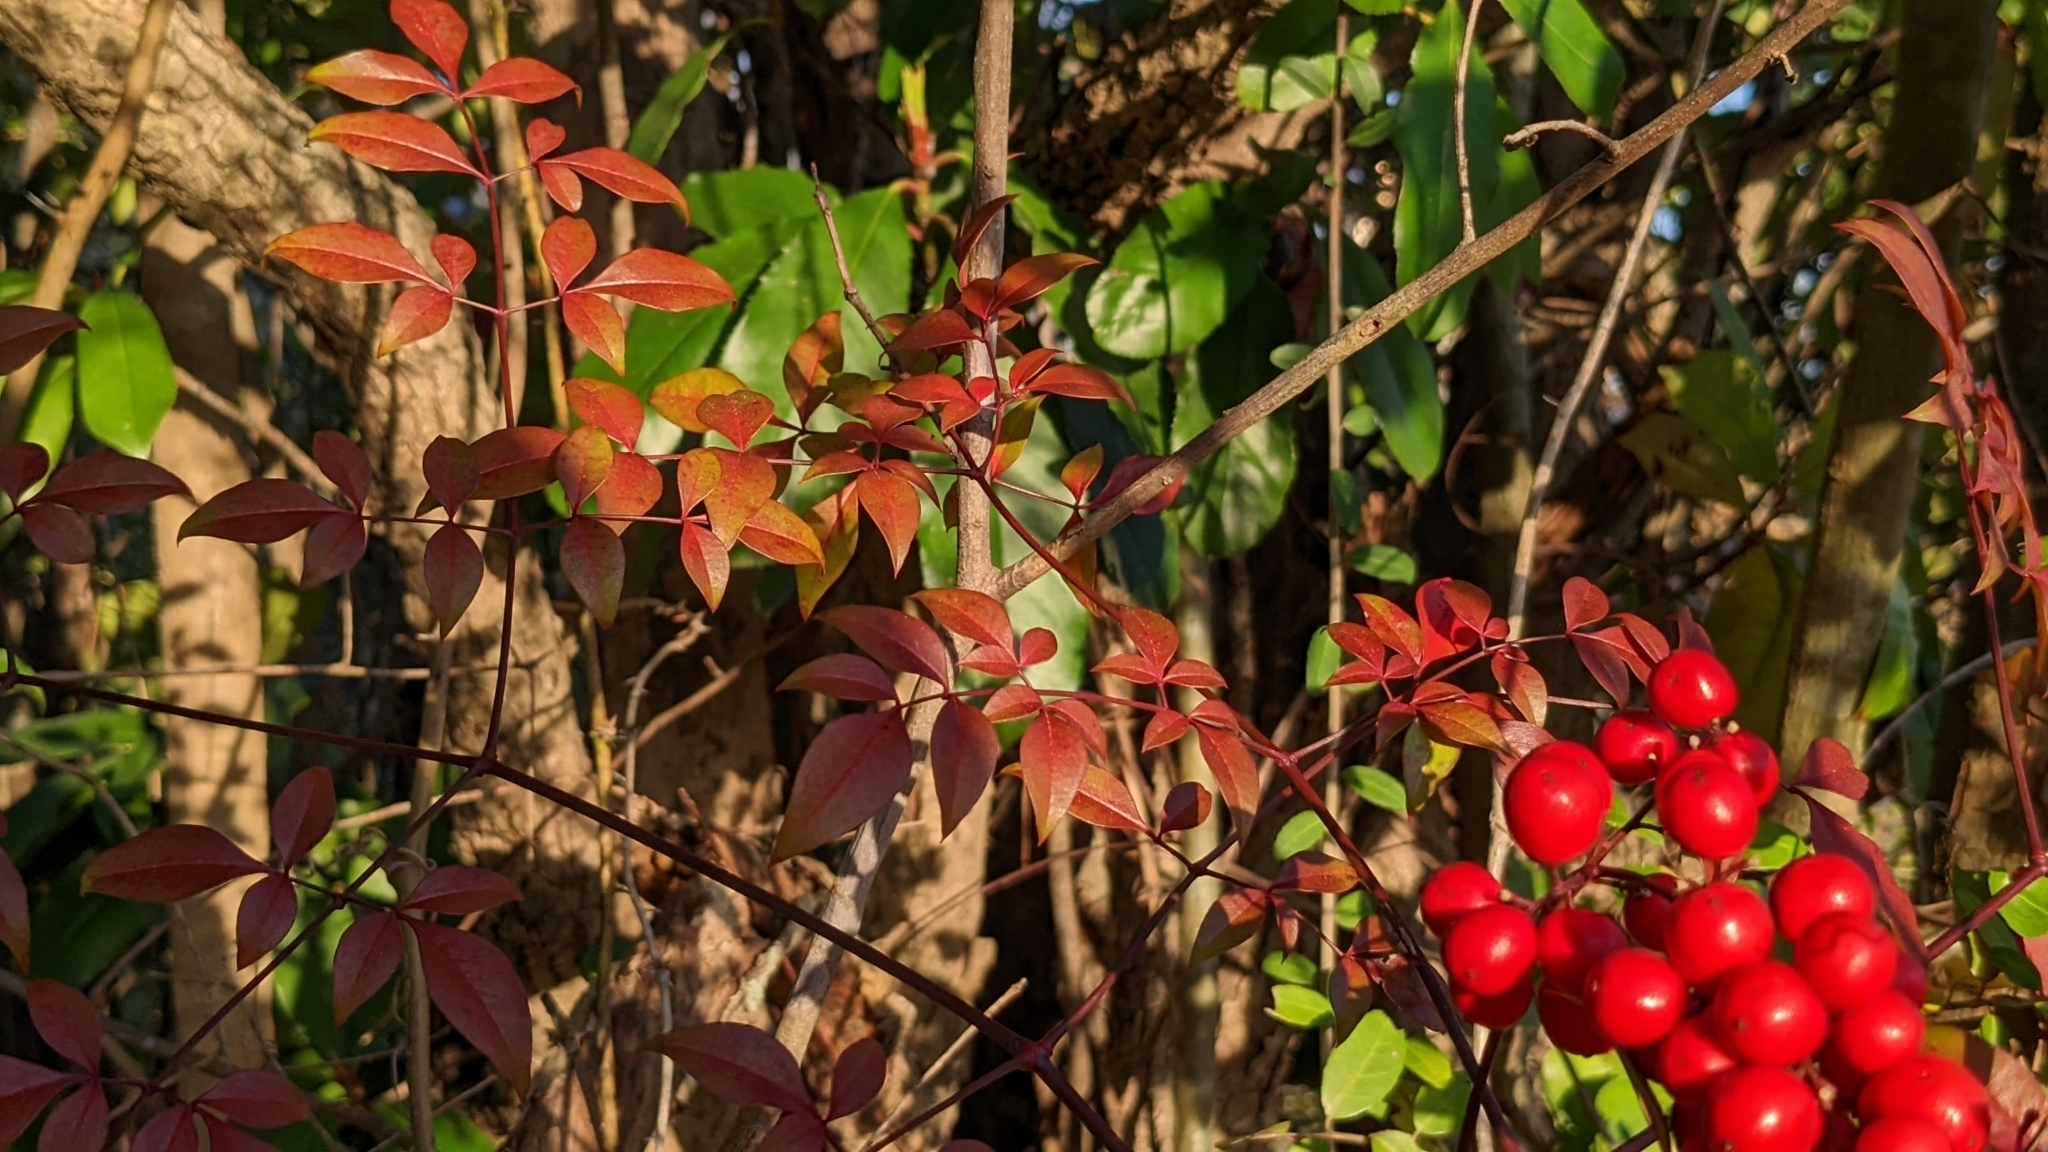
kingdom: Plantae
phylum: Tracheophyta
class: Magnoliopsida
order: Ranunculales
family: Berberidaceae
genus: Nandina
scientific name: Nandina domestica
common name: Sacred bamboo
